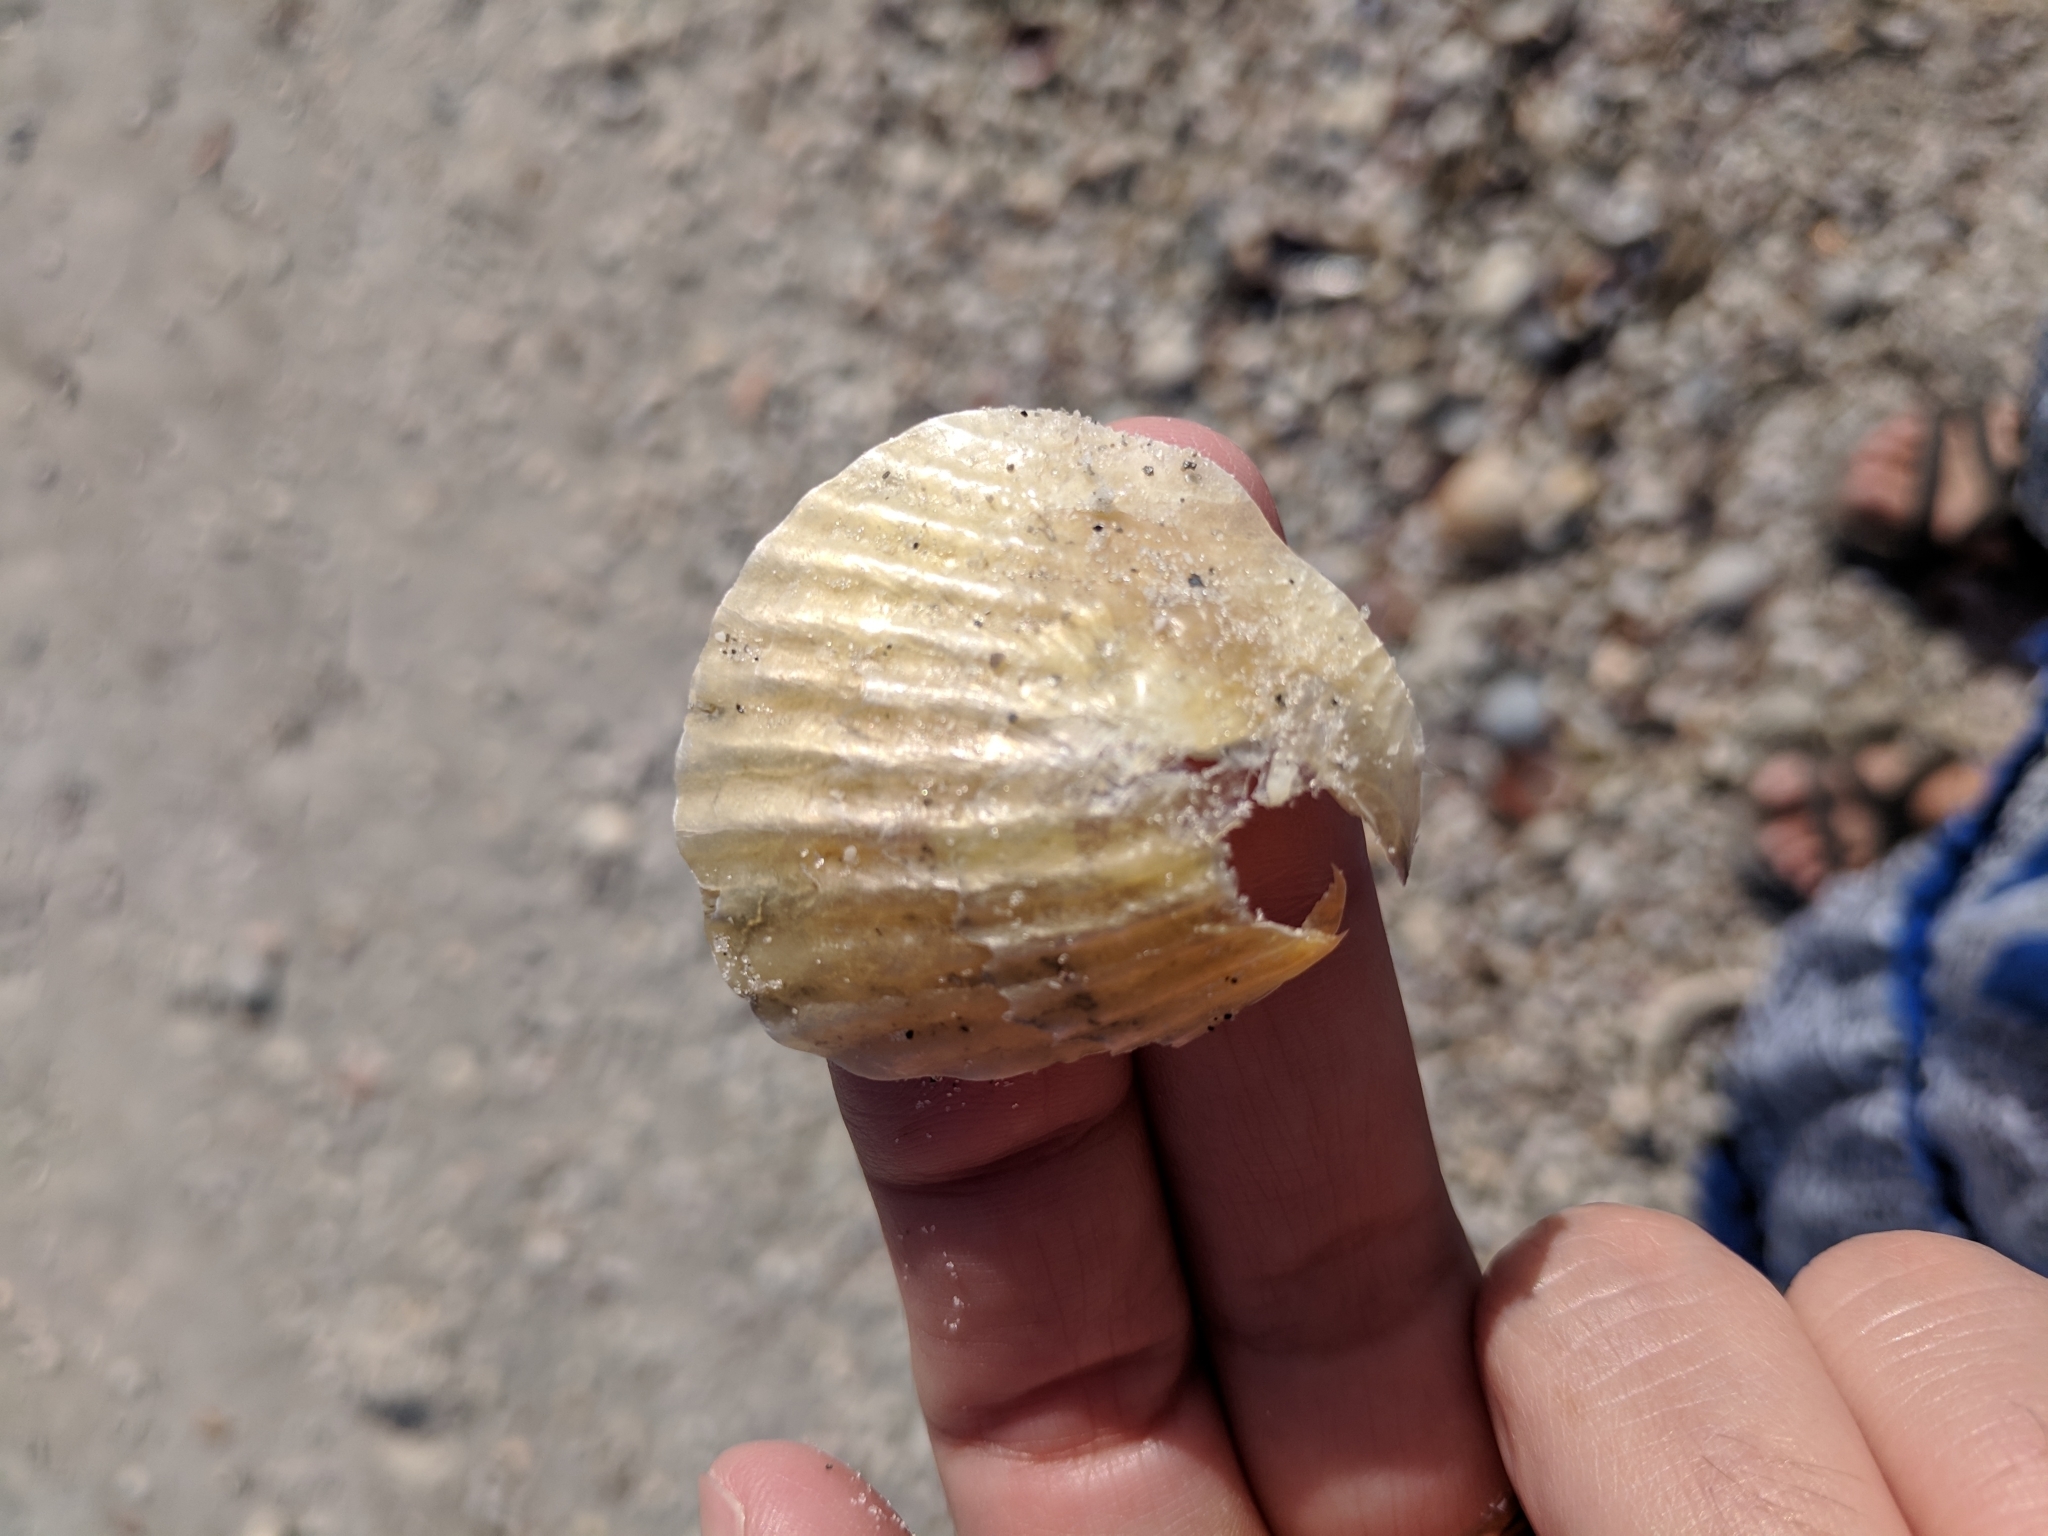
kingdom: Animalia
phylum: Mollusca
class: Bivalvia
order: Pectinida
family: Anomiidae
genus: Anomia
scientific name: Anomia simplex
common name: Common jingle shell
